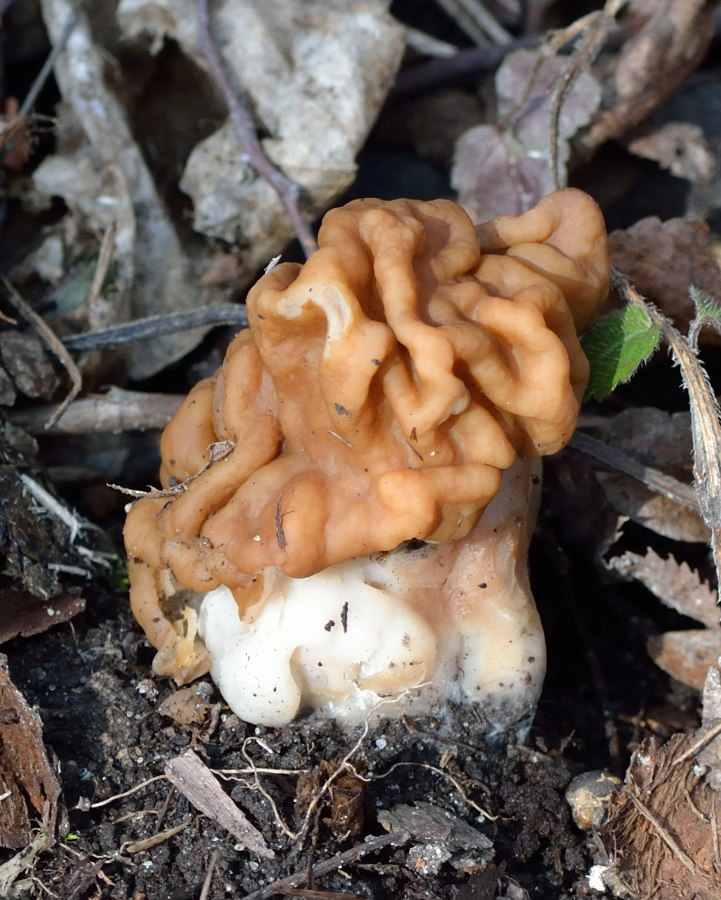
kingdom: Fungi
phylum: Ascomycota
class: Pezizomycetes
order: Pezizales
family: Discinaceae
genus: Gyromitra
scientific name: Gyromitra gigas
